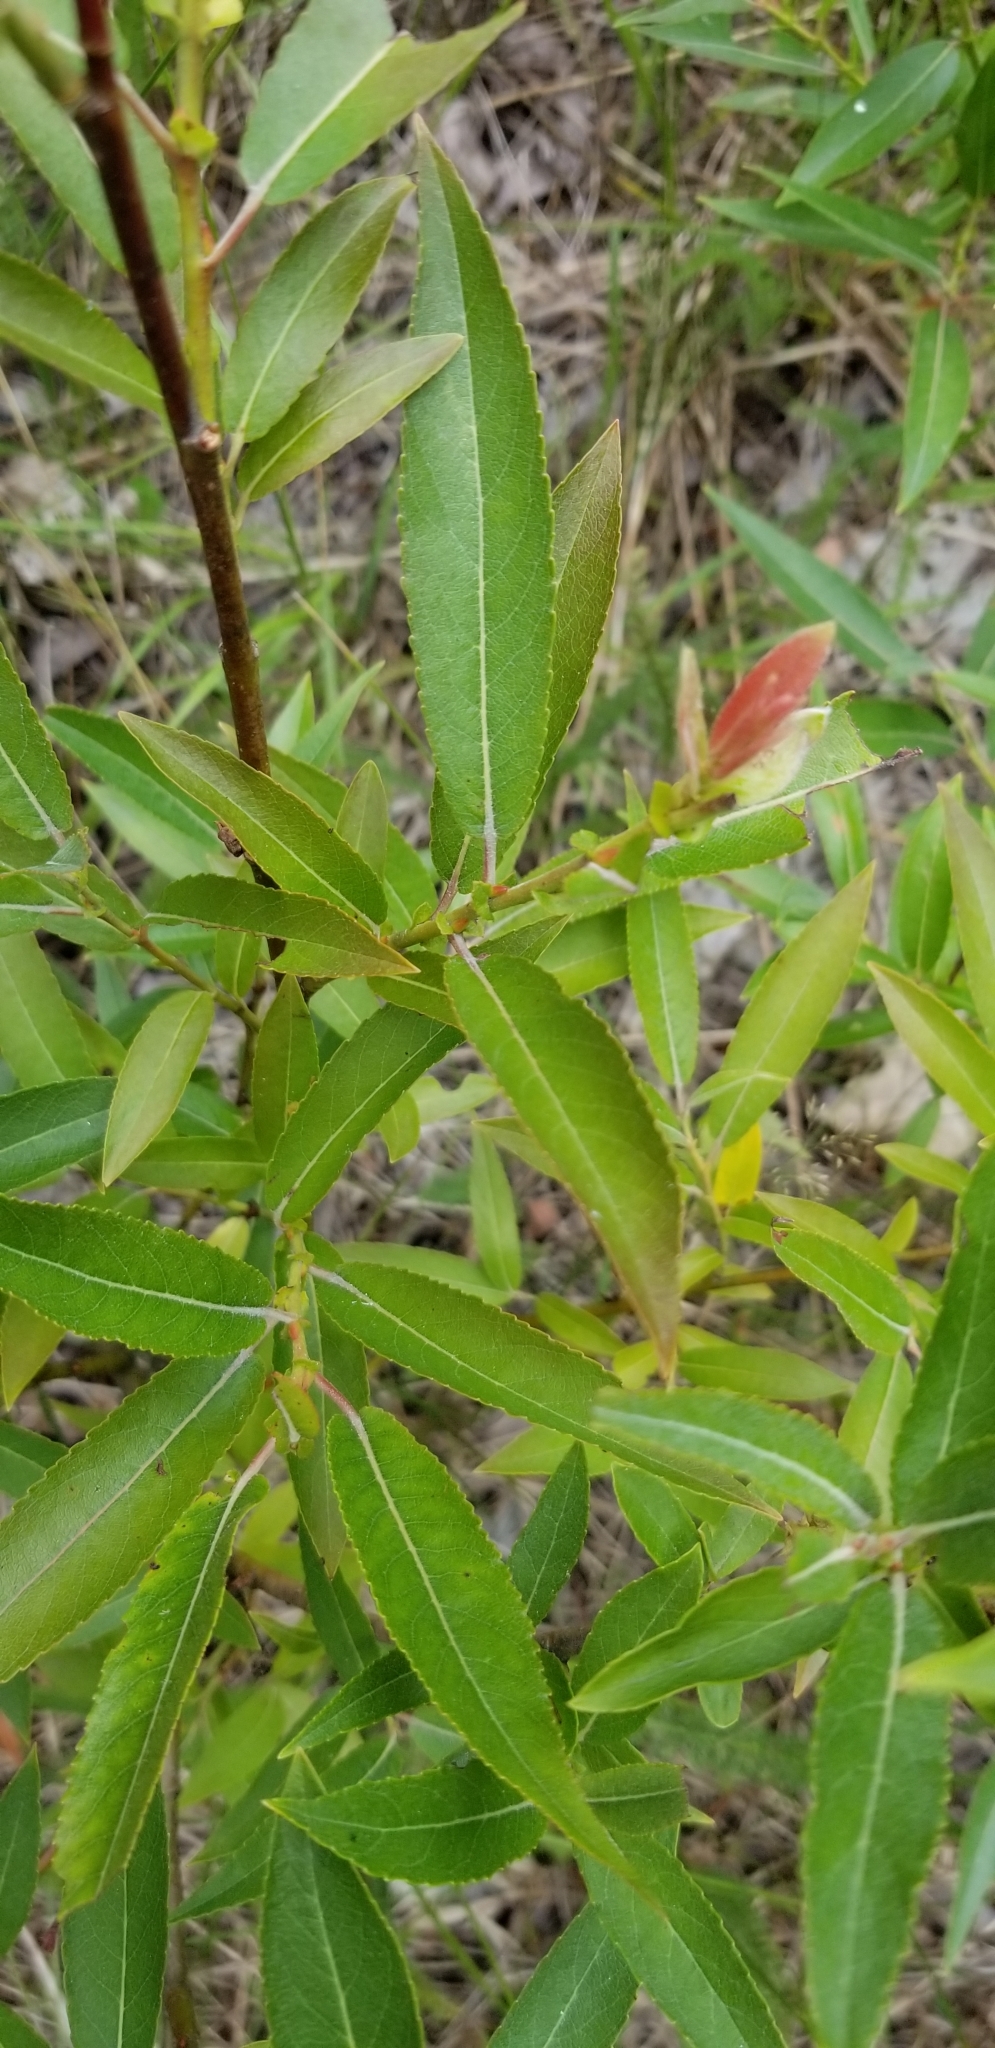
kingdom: Plantae
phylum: Tracheophyta
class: Magnoliopsida
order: Malpighiales
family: Salicaceae
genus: Salix
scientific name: Salix eriocephala
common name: Heart-leaved willow
